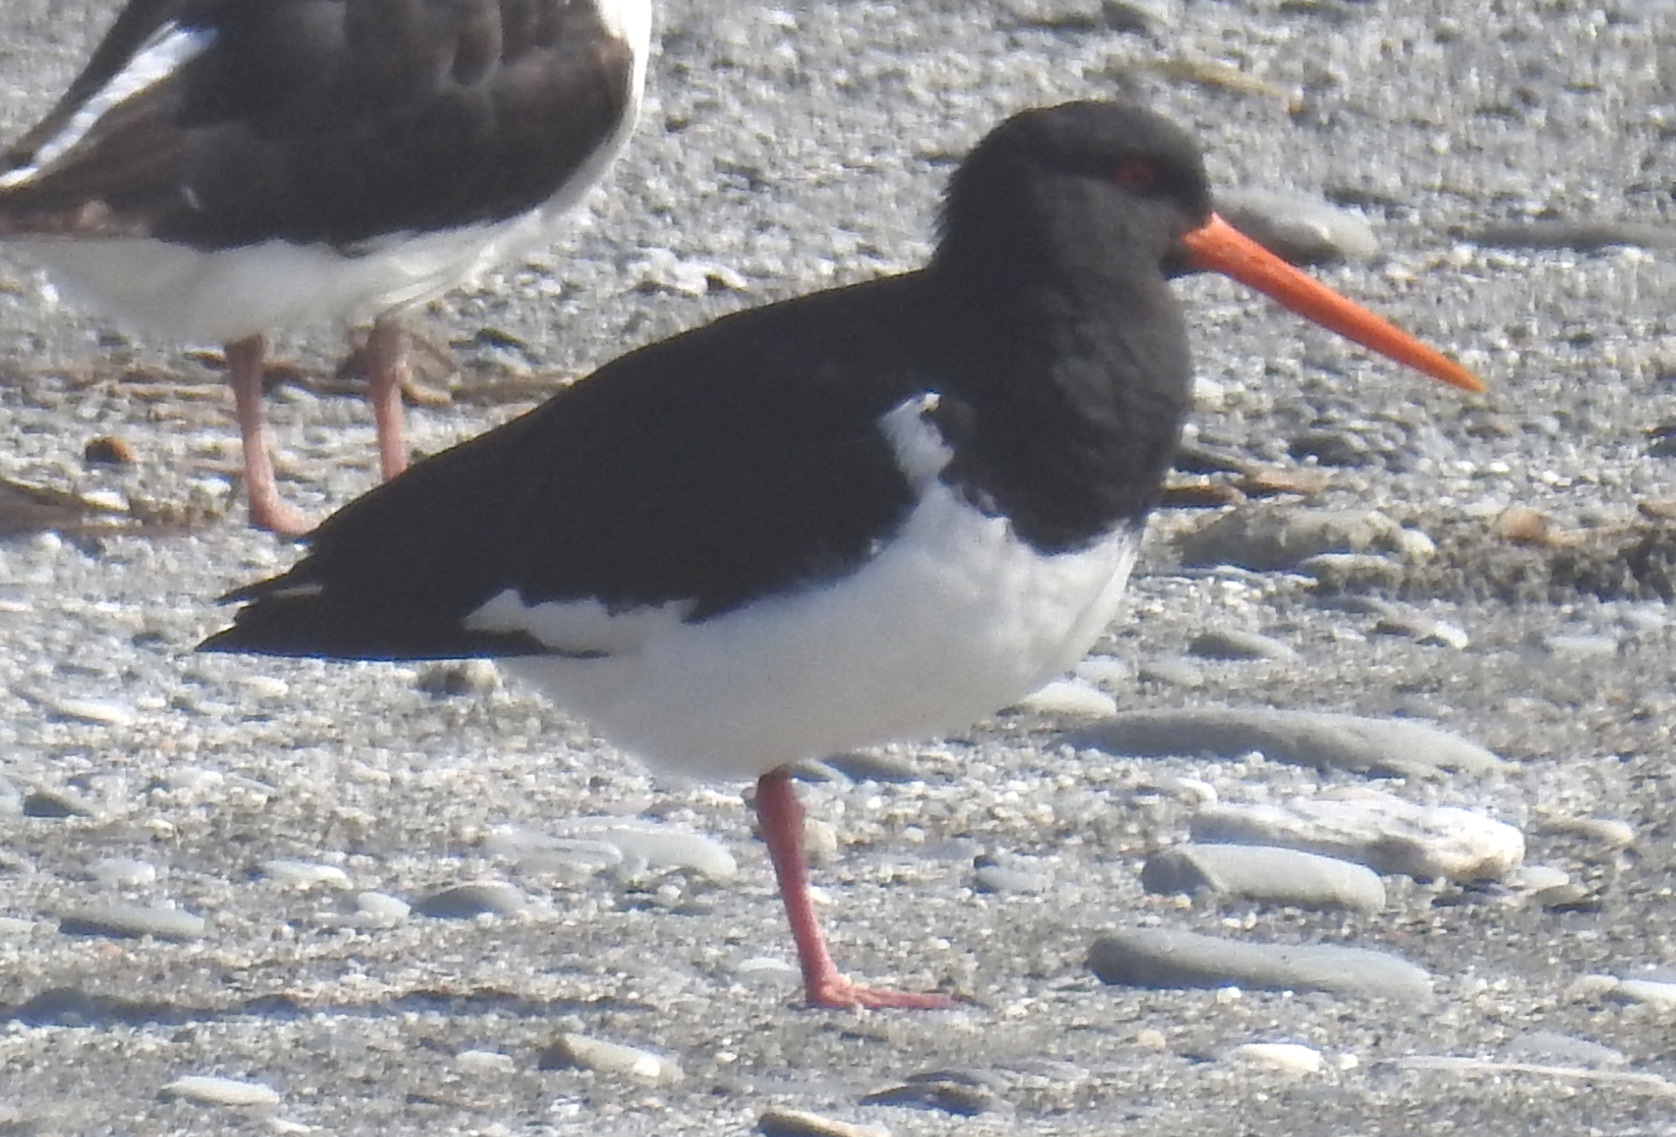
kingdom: Animalia
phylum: Chordata
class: Aves
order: Charadriiformes
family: Haematopodidae
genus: Haematopus
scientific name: Haematopus finschi
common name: South island oystercatcher
